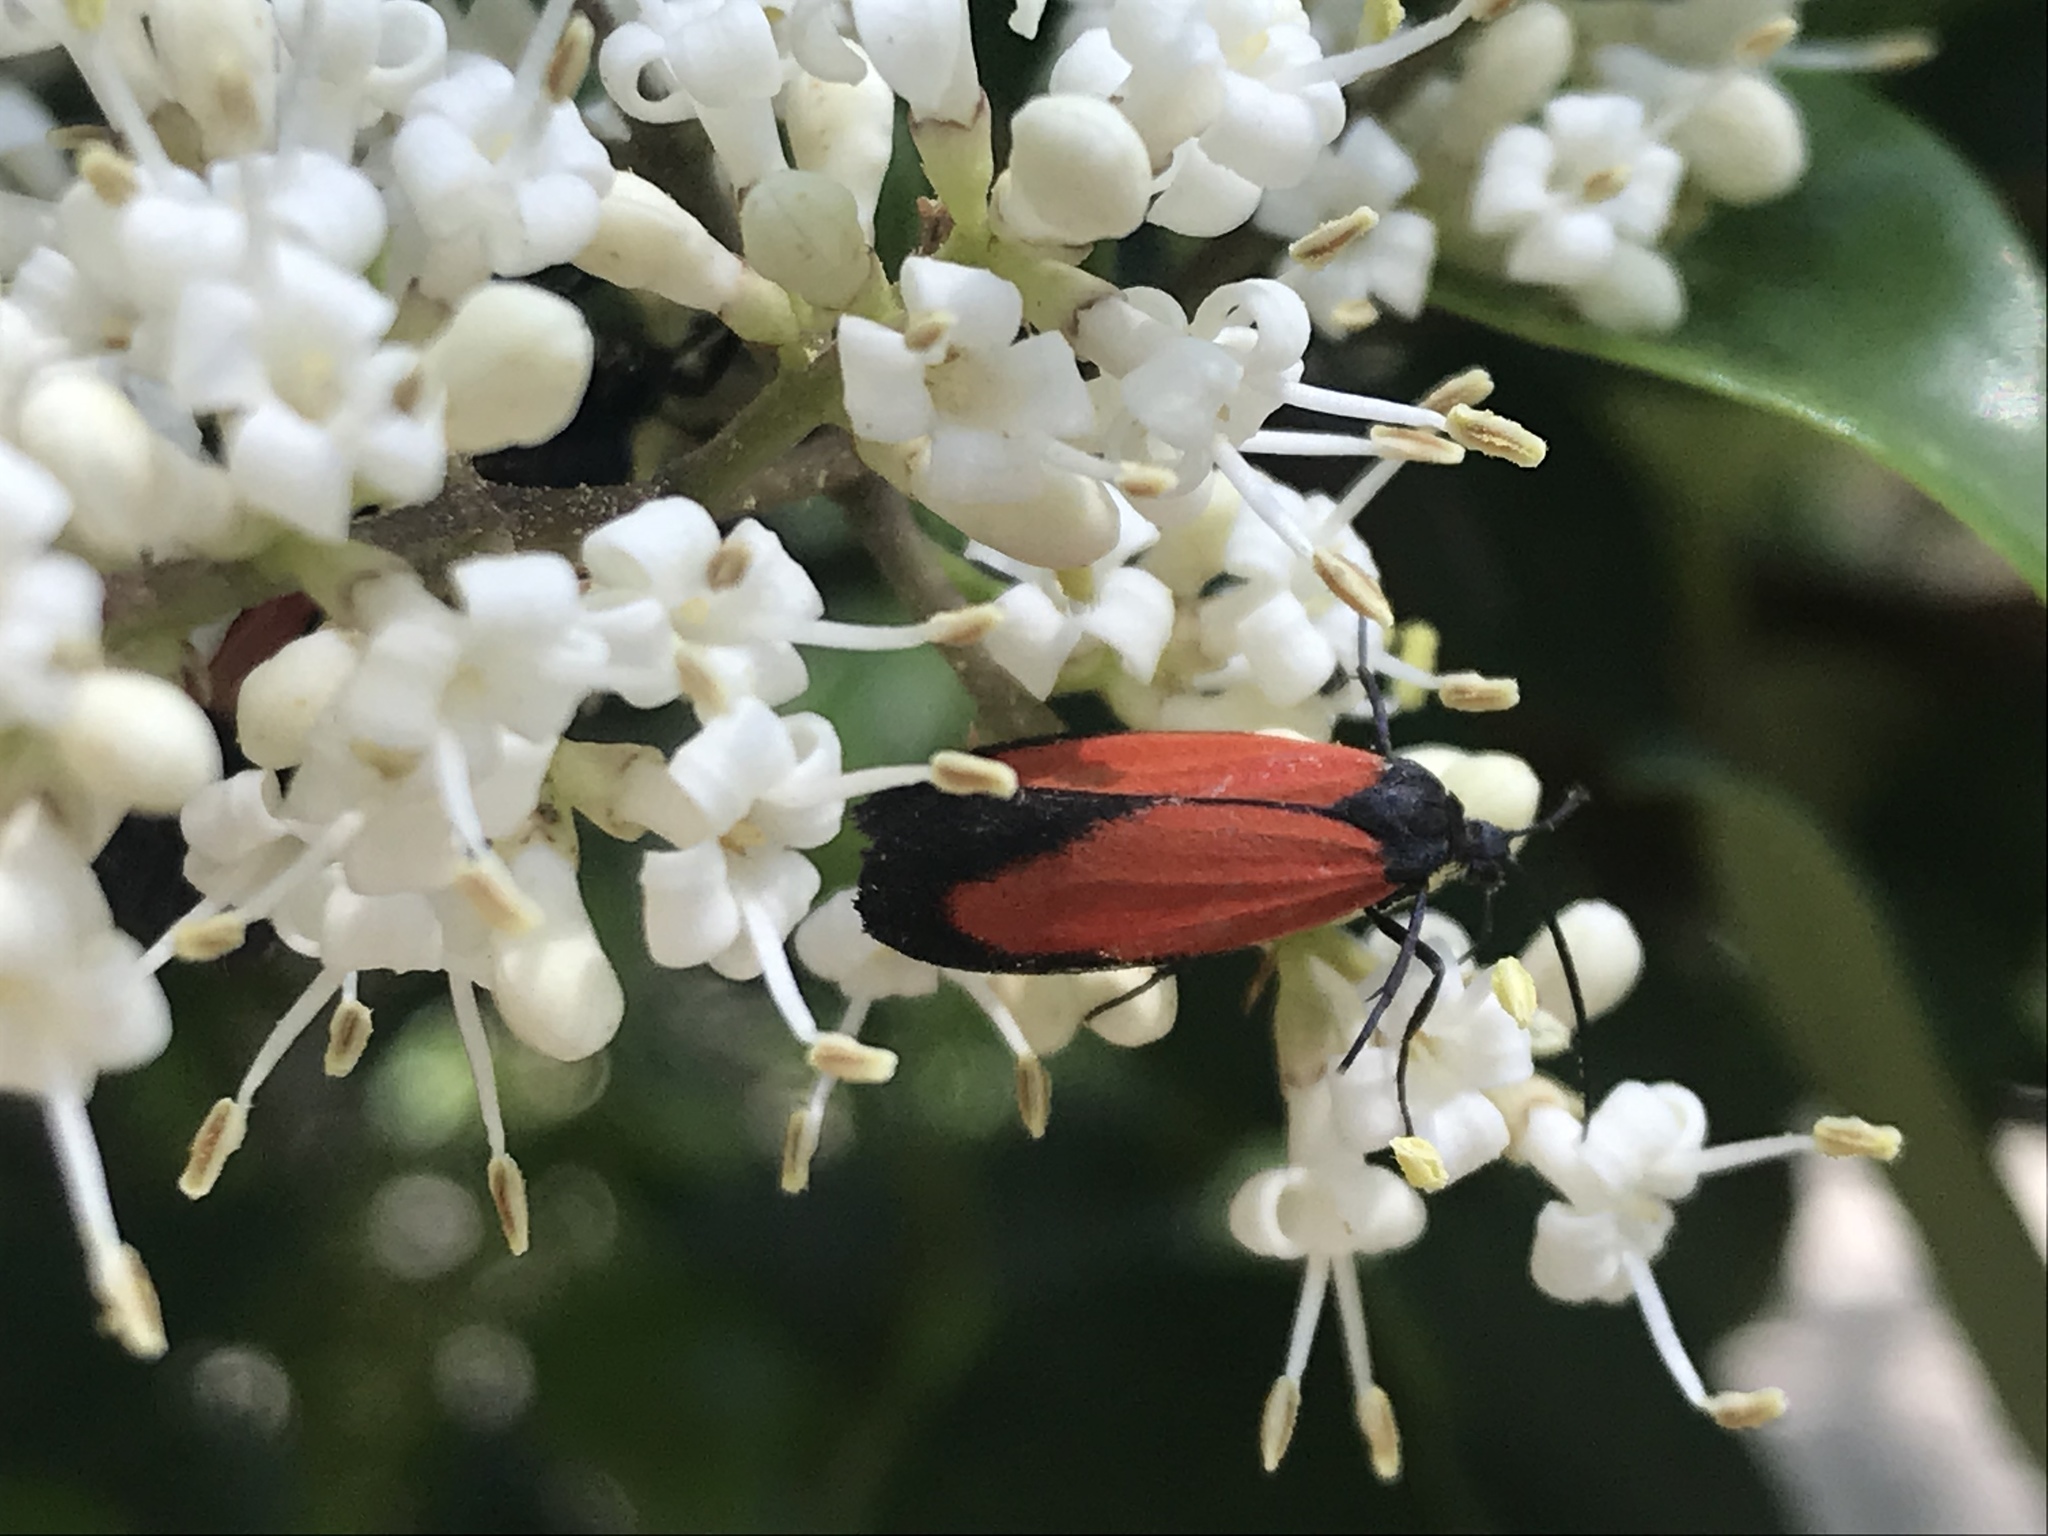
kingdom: Animalia
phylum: Arthropoda
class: Insecta
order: Lepidoptera
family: Erebidae
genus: Ptychoglene
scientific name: Ptychoglene sanguineola
